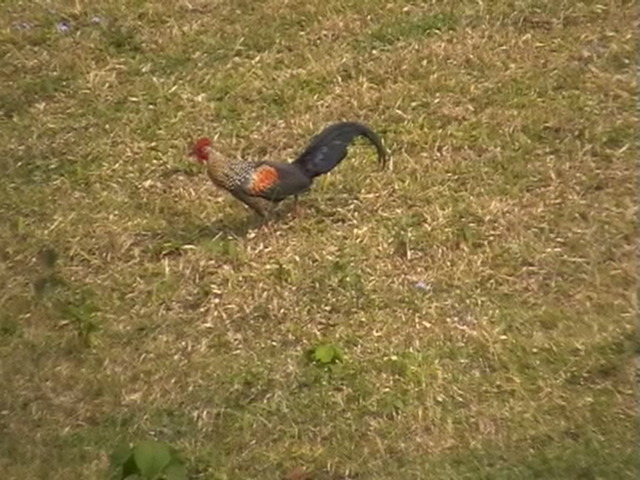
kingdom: Animalia
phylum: Chordata
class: Aves
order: Galliformes
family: Phasianidae
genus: Gallus
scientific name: Gallus sonneratii
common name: Grey junglefowl
